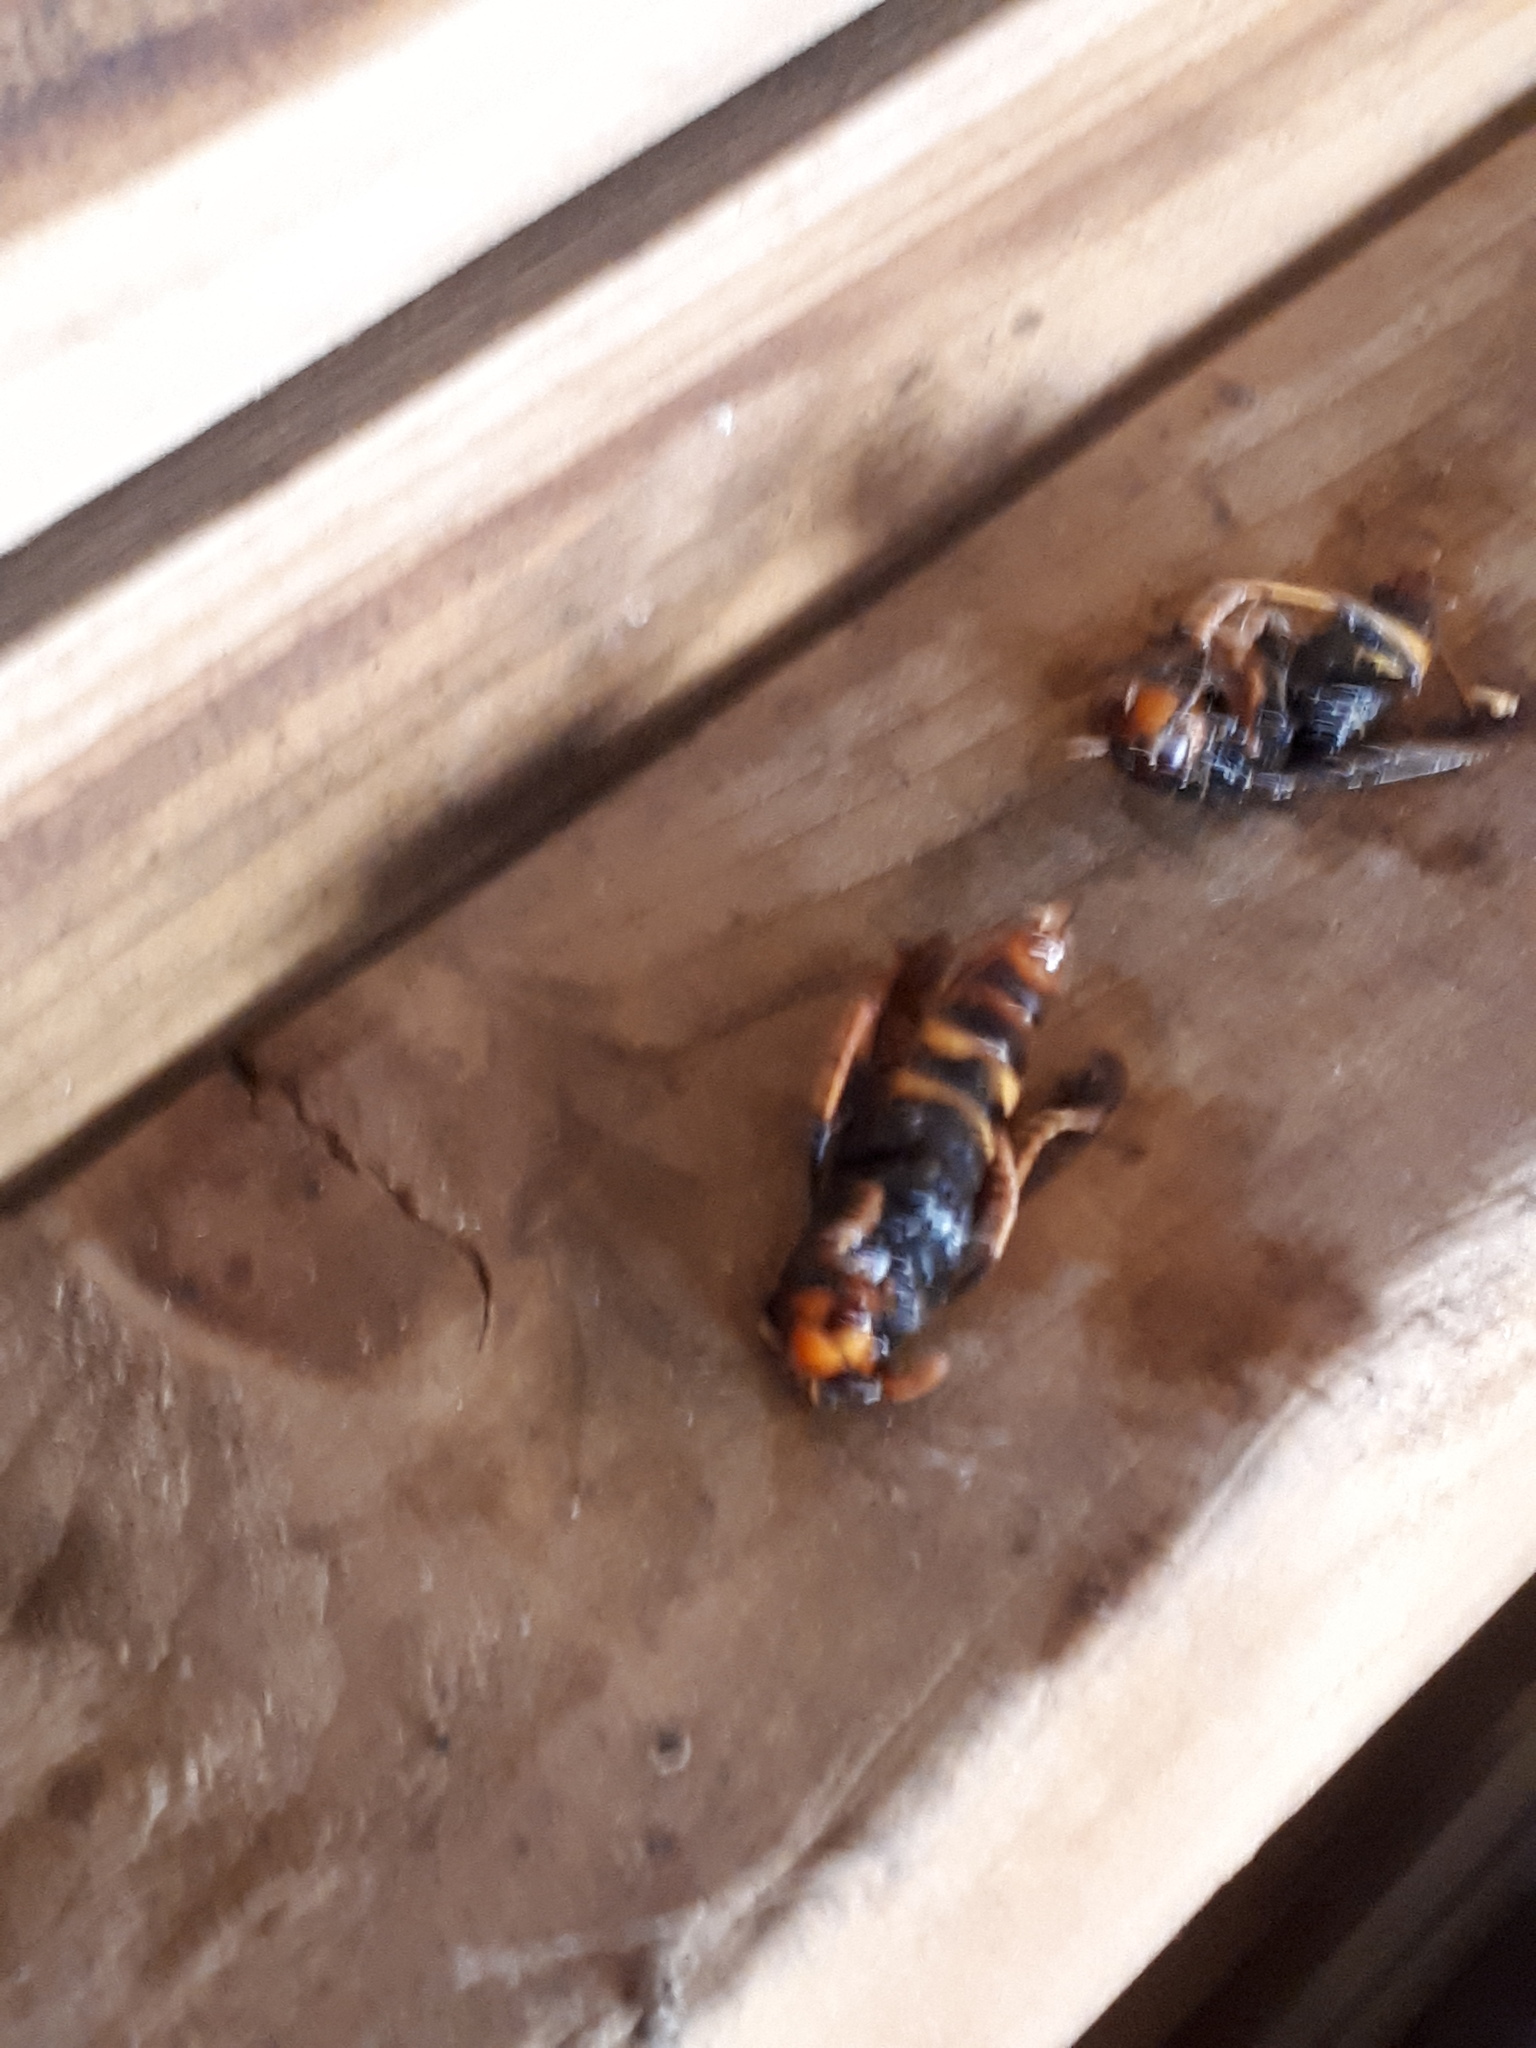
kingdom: Animalia
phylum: Arthropoda
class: Insecta
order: Hymenoptera
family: Vespidae
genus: Vespa
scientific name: Vespa velutina
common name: Asian hornet
